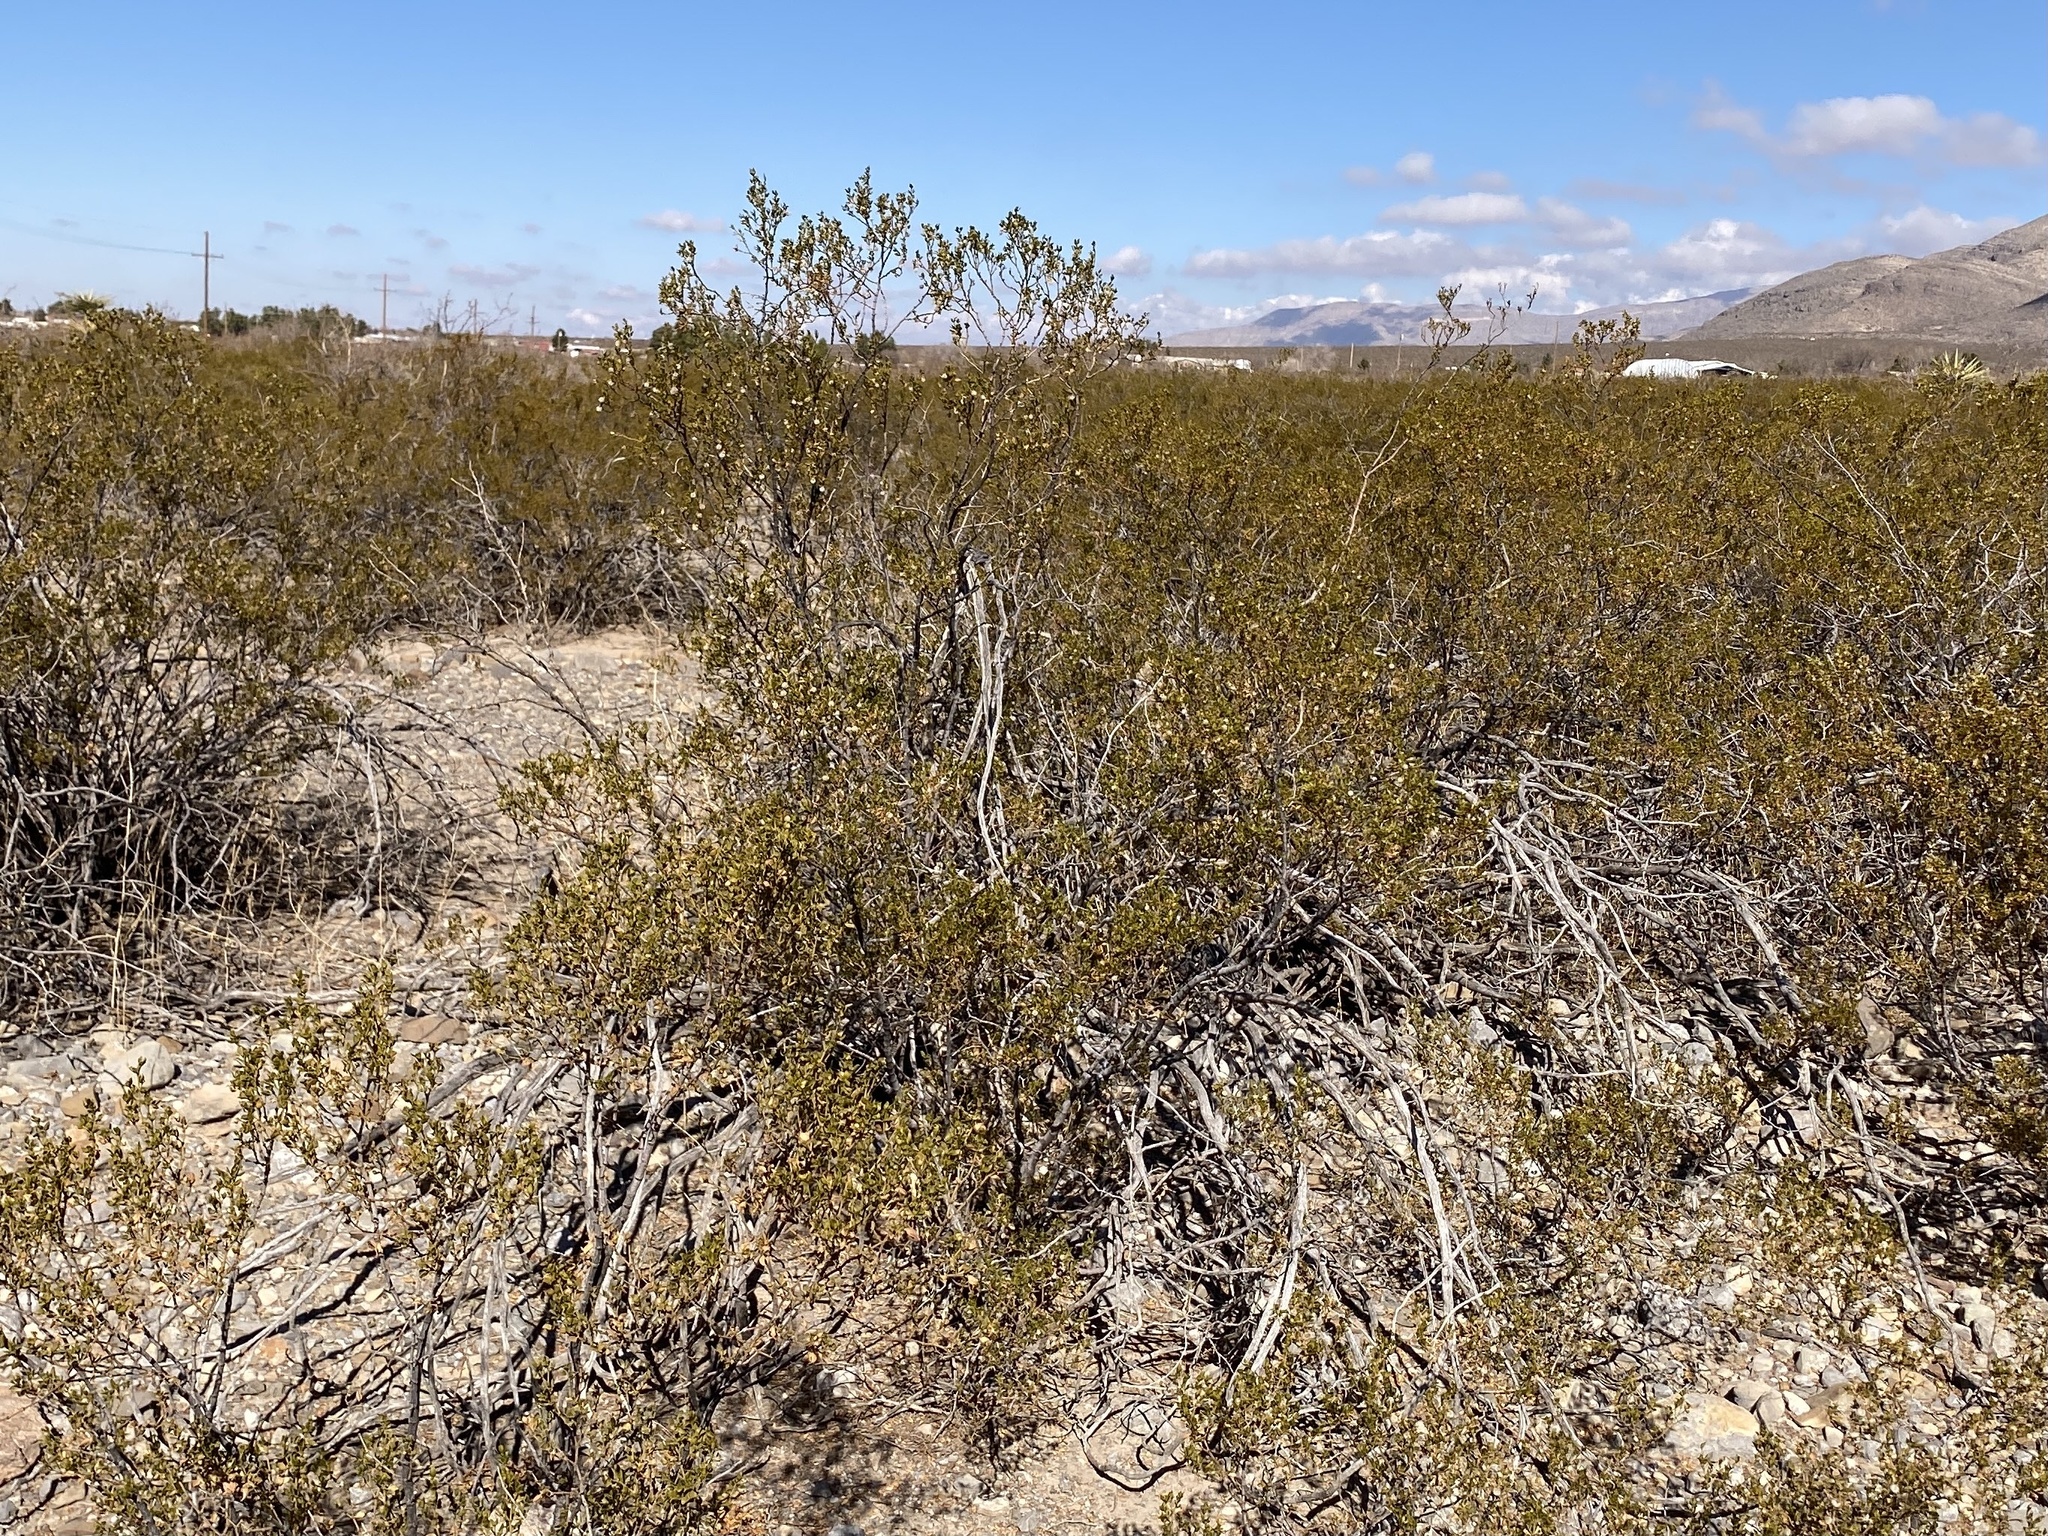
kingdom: Plantae
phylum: Tracheophyta
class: Magnoliopsida
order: Zygophyllales
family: Zygophyllaceae
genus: Larrea
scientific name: Larrea tridentata
